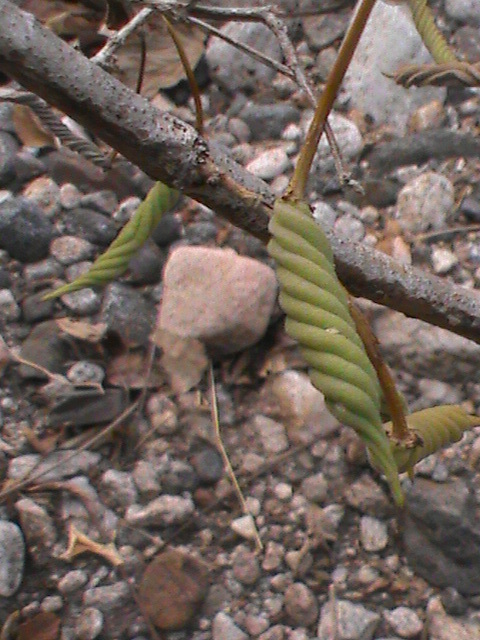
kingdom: Plantae
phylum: Tracheophyta
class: Magnoliopsida
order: Malvales
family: Malvaceae
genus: Helicteres
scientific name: Helicteres isora
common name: East indian screwtree
